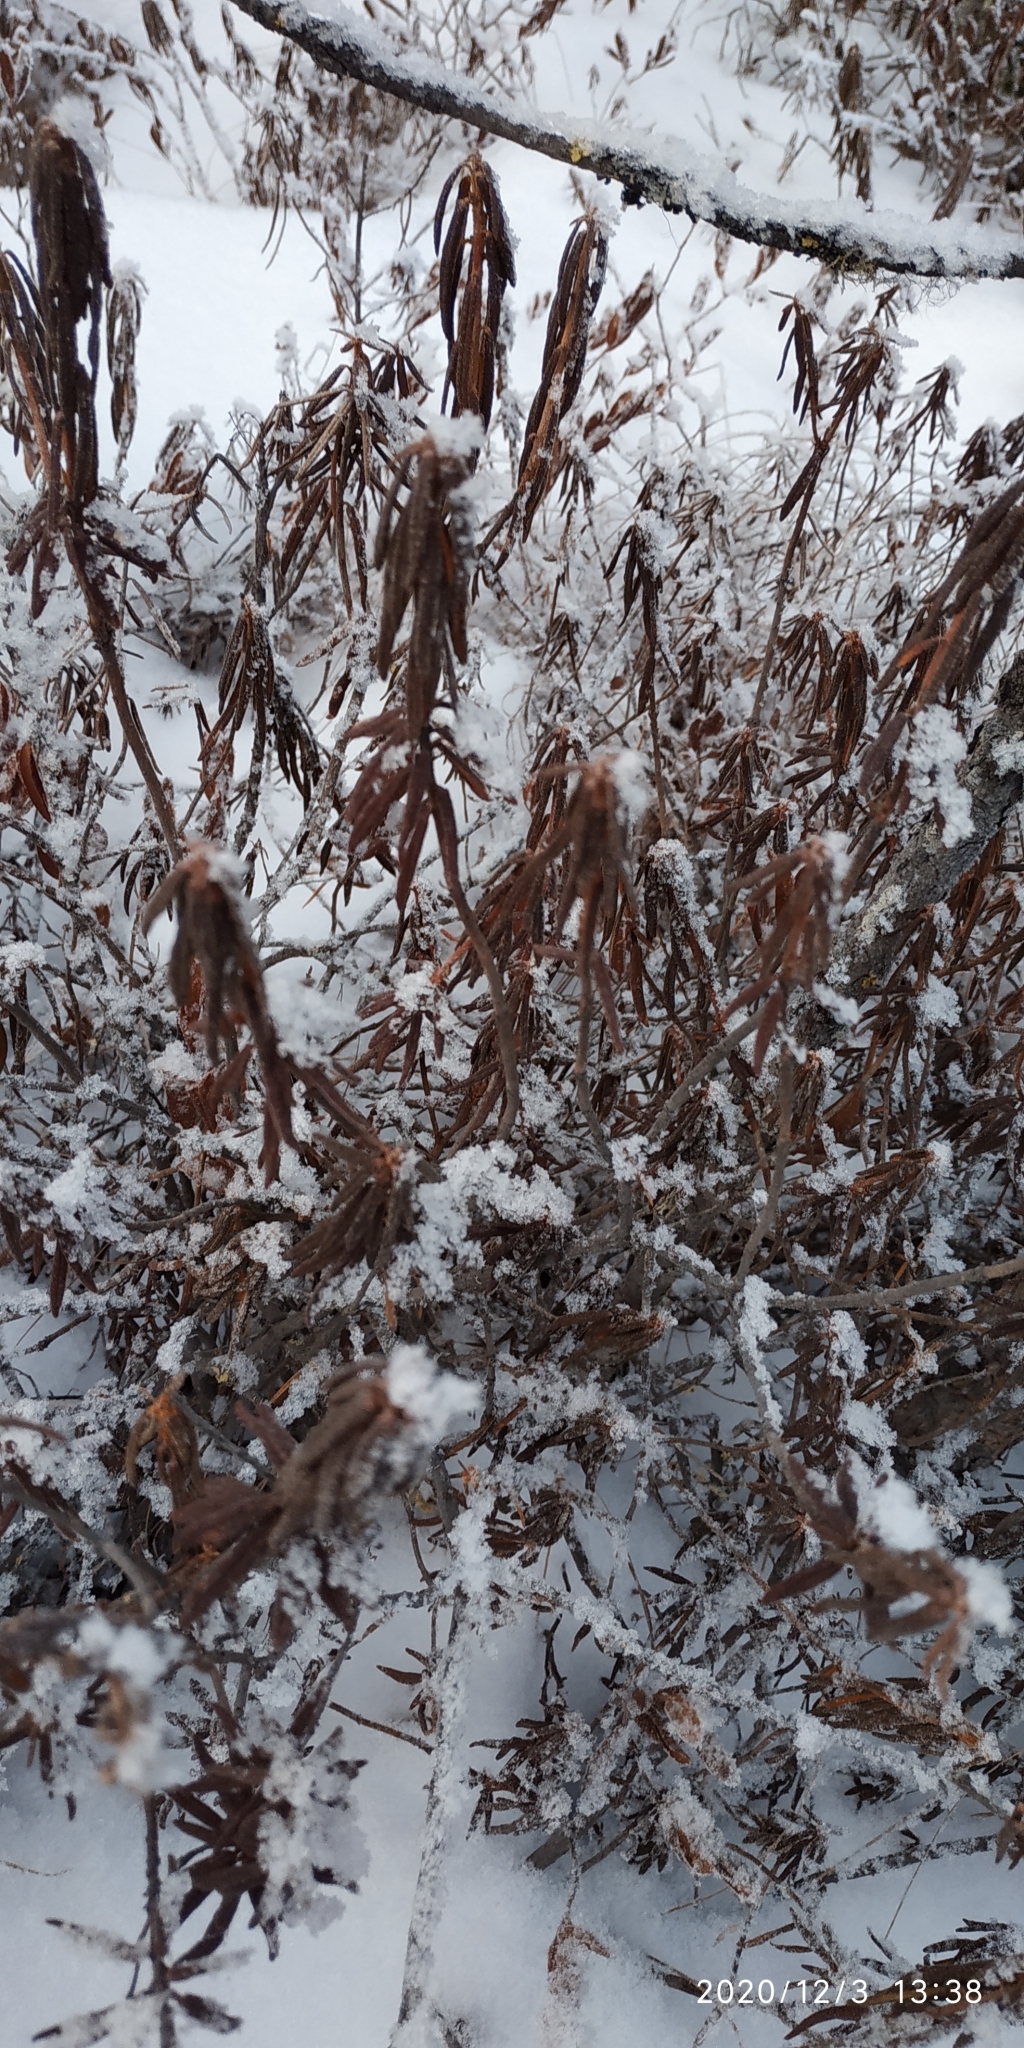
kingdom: Plantae
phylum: Tracheophyta
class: Magnoliopsida
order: Ericales
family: Ericaceae
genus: Rhododendron
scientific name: Rhododendron tomentosum
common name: Marsh labrador tea
